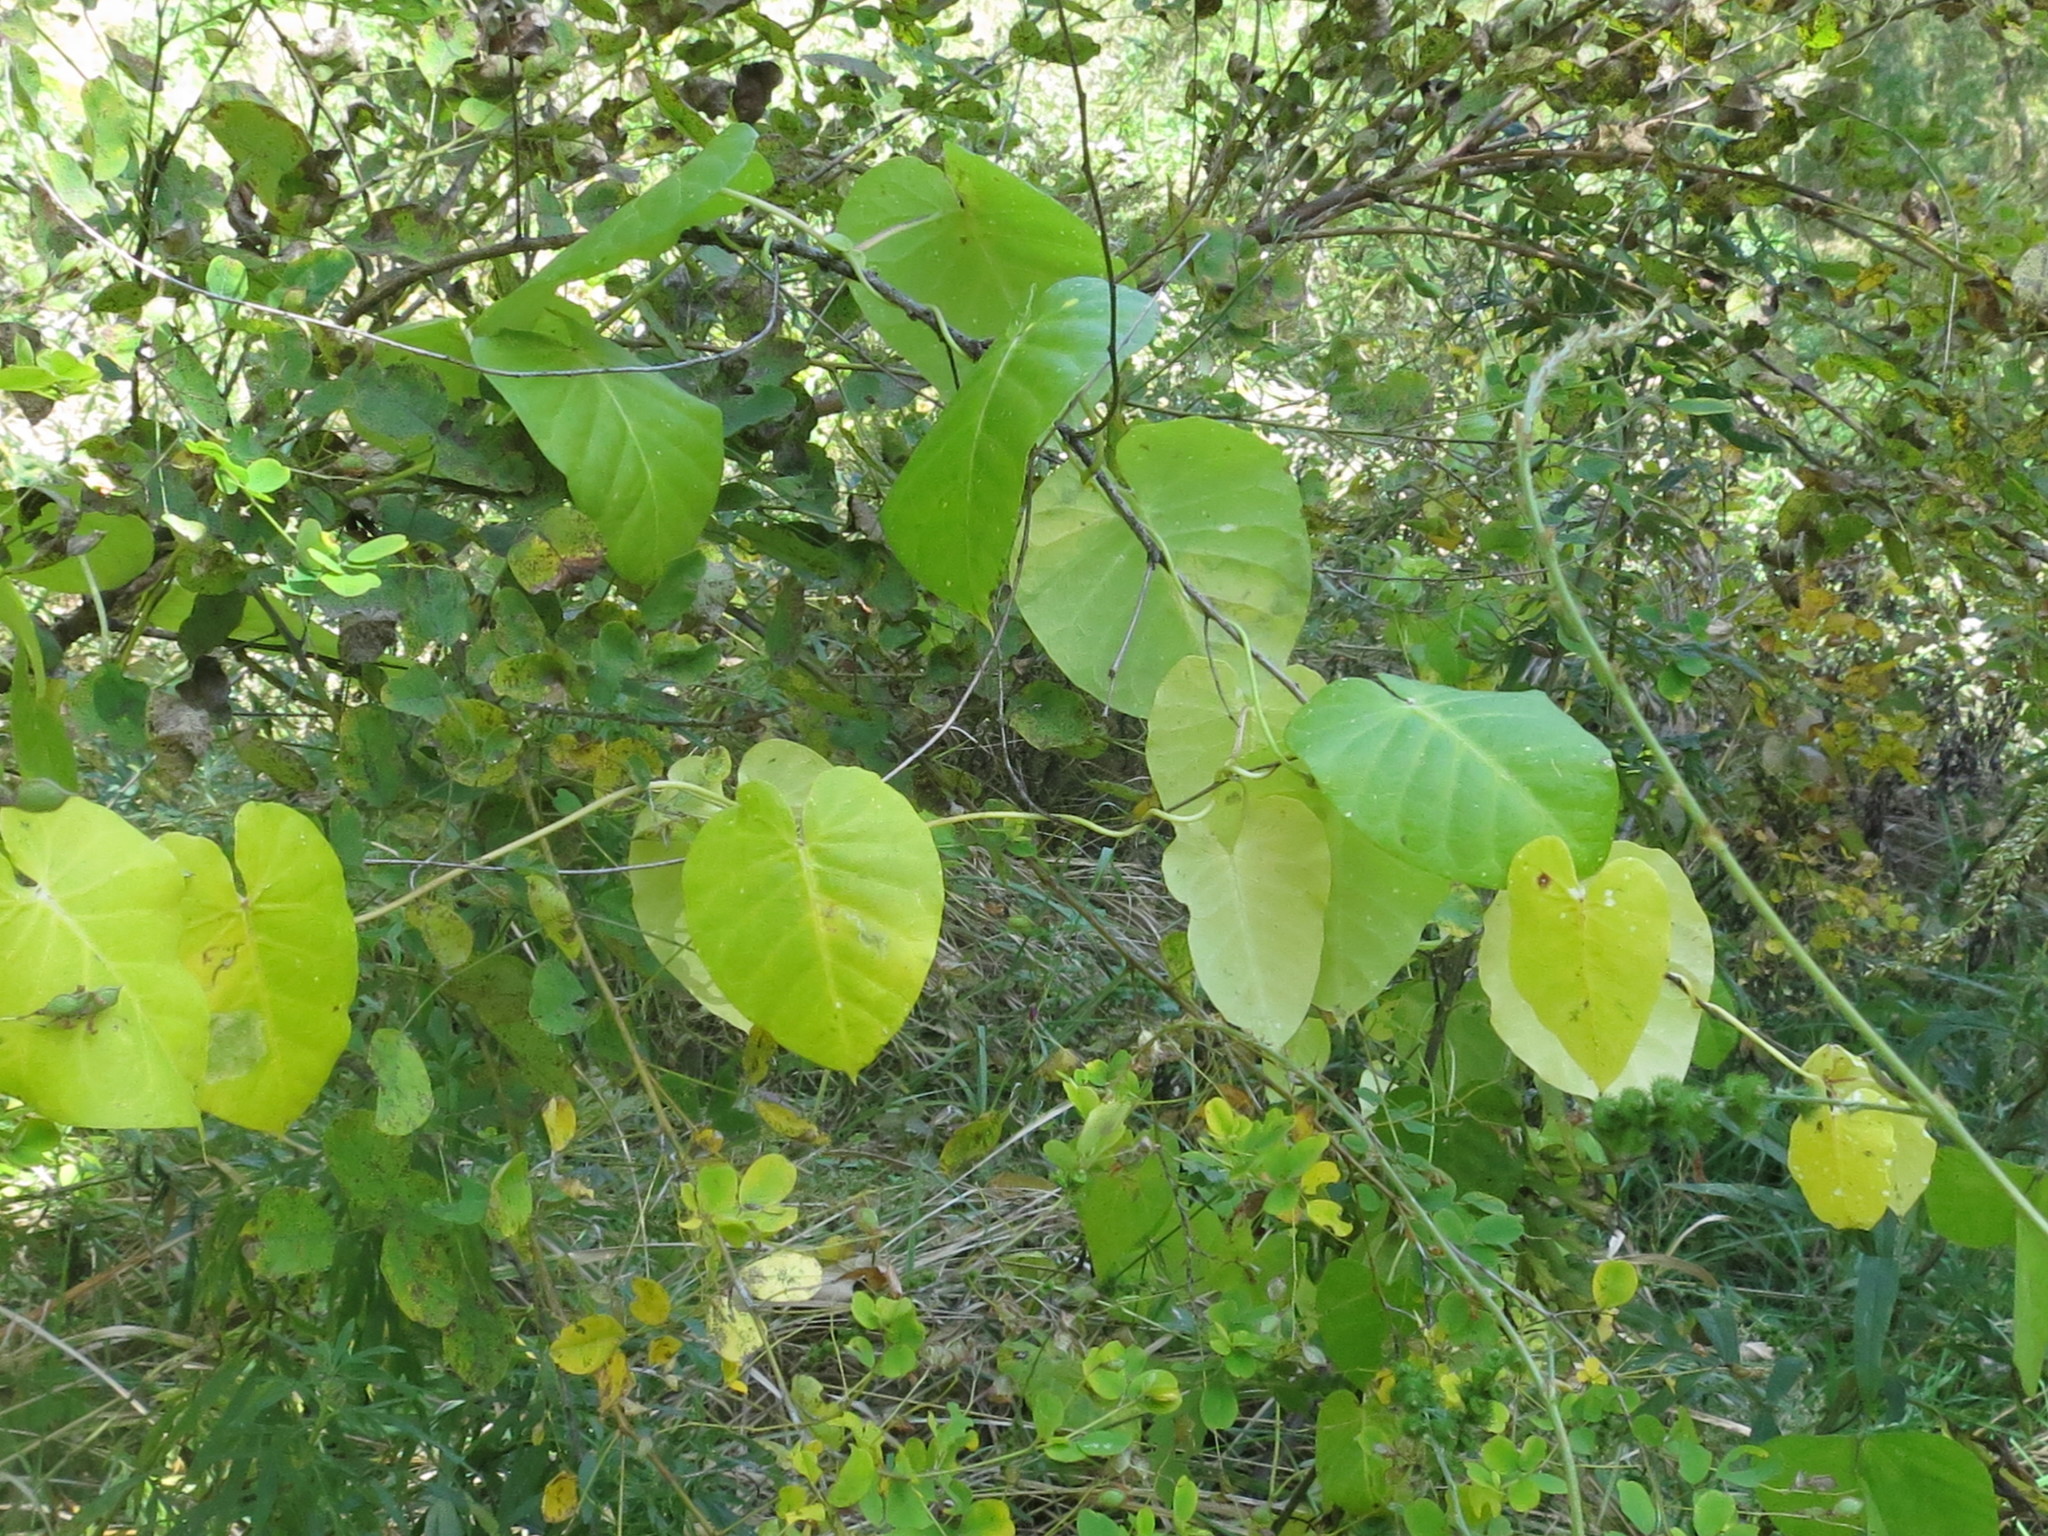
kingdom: Plantae
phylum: Tracheophyta
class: Magnoliopsida
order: Gentianales
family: Apocynaceae
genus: Cynanchum
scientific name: Cynanchum rostellatum
